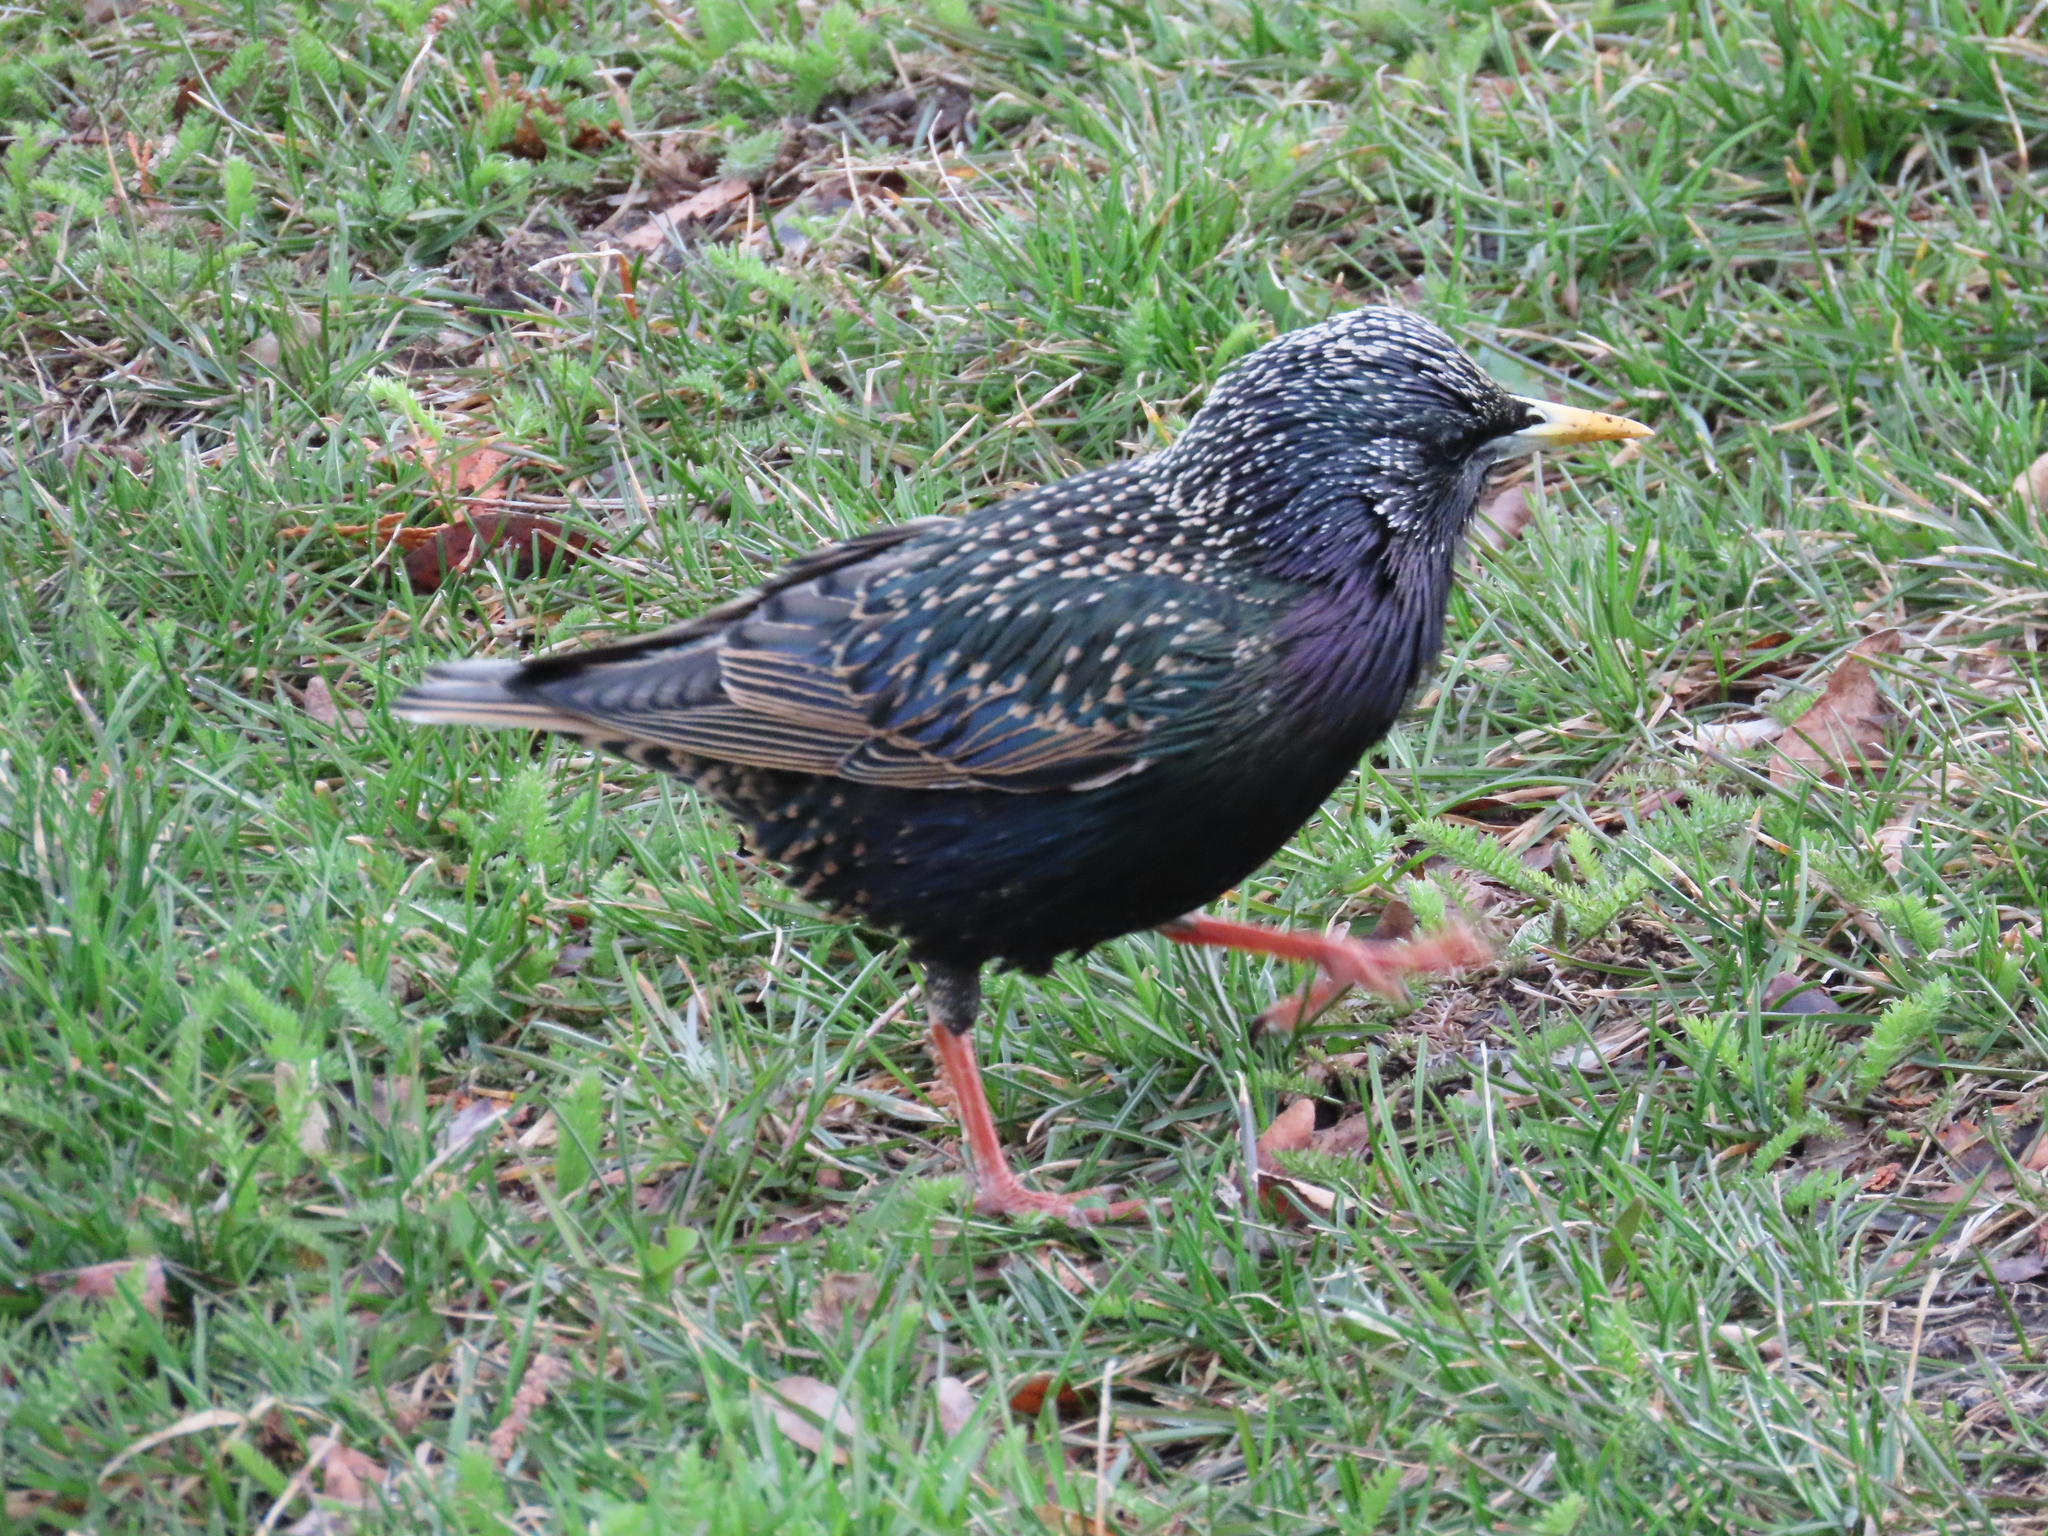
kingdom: Animalia
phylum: Chordata
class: Aves
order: Passeriformes
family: Sturnidae
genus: Sturnus
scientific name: Sturnus vulgaris
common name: Common starling
